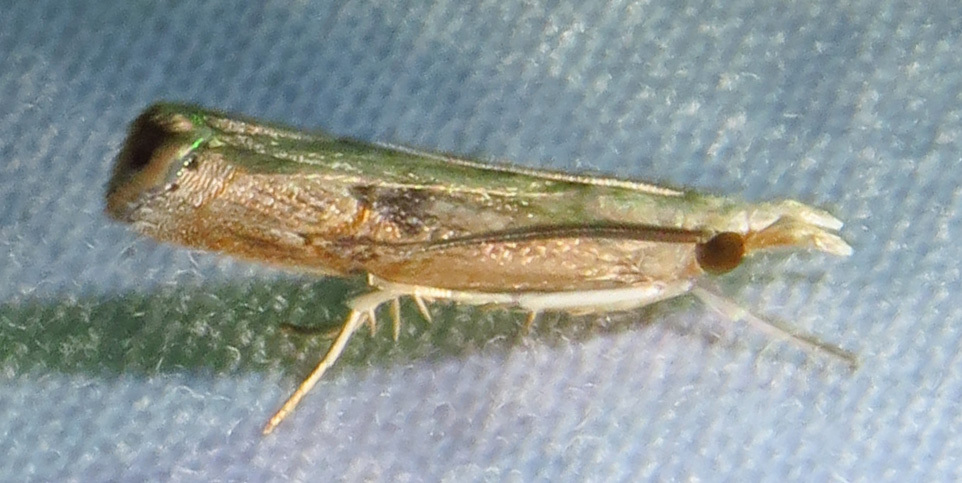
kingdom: Animalia
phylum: Arthropoda
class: Insecta
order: Lepidoptera
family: Crambidae
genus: Parapediasia
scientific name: Parapediasia teterellus
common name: Bluegrass webworm moth
